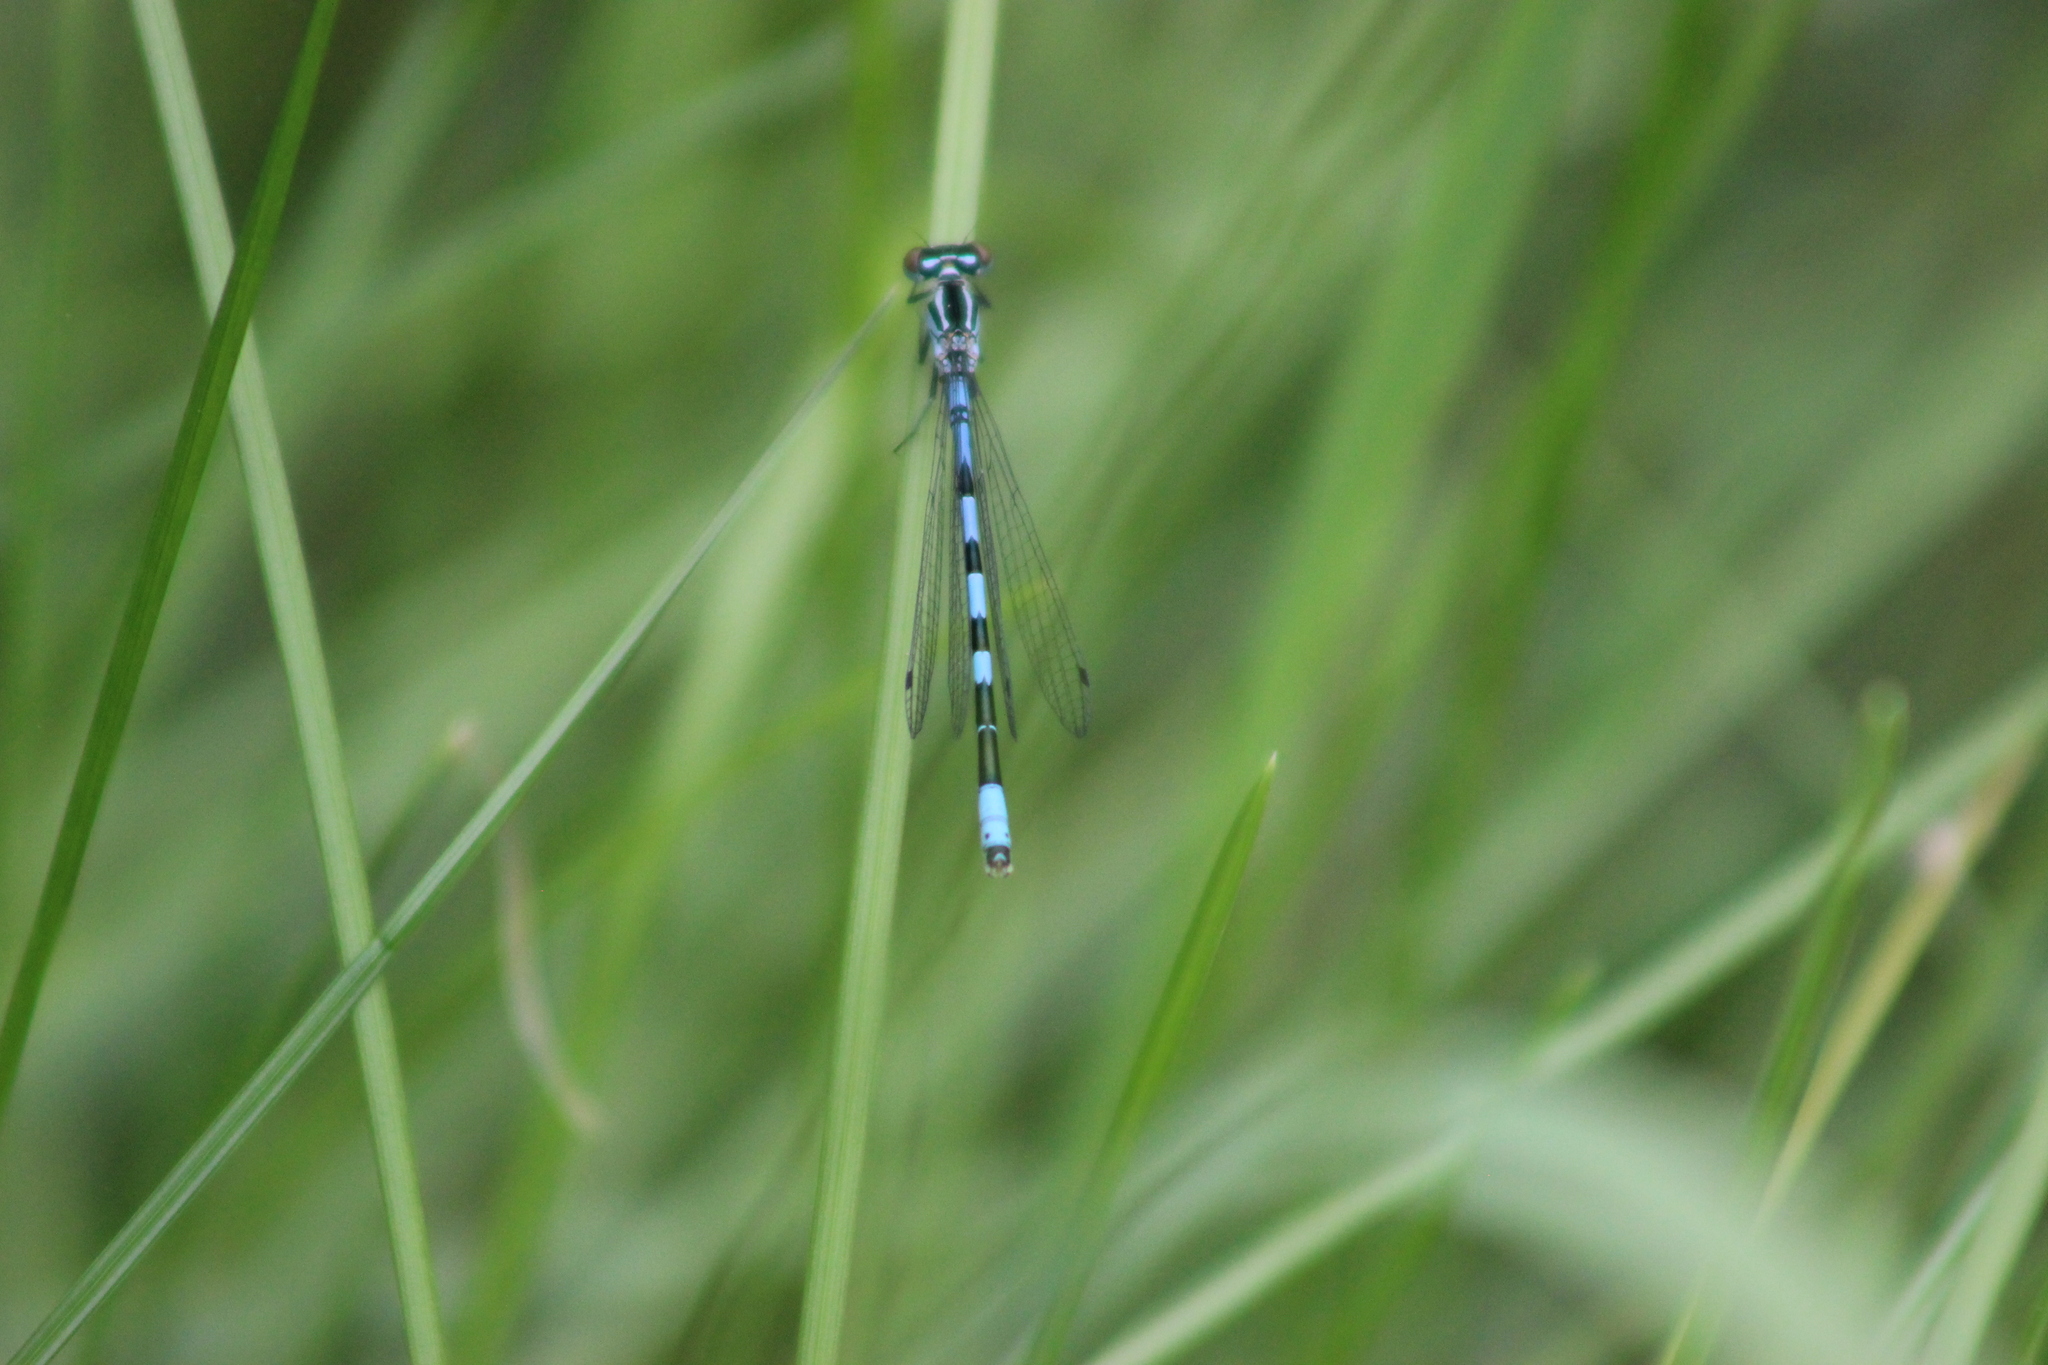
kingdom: Animalia
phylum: Arthropoda
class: Insecta
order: Odonata
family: Coenagrionidae
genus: Coenagrion
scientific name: Coenagrion hastulatum
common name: Spearhead bluet
